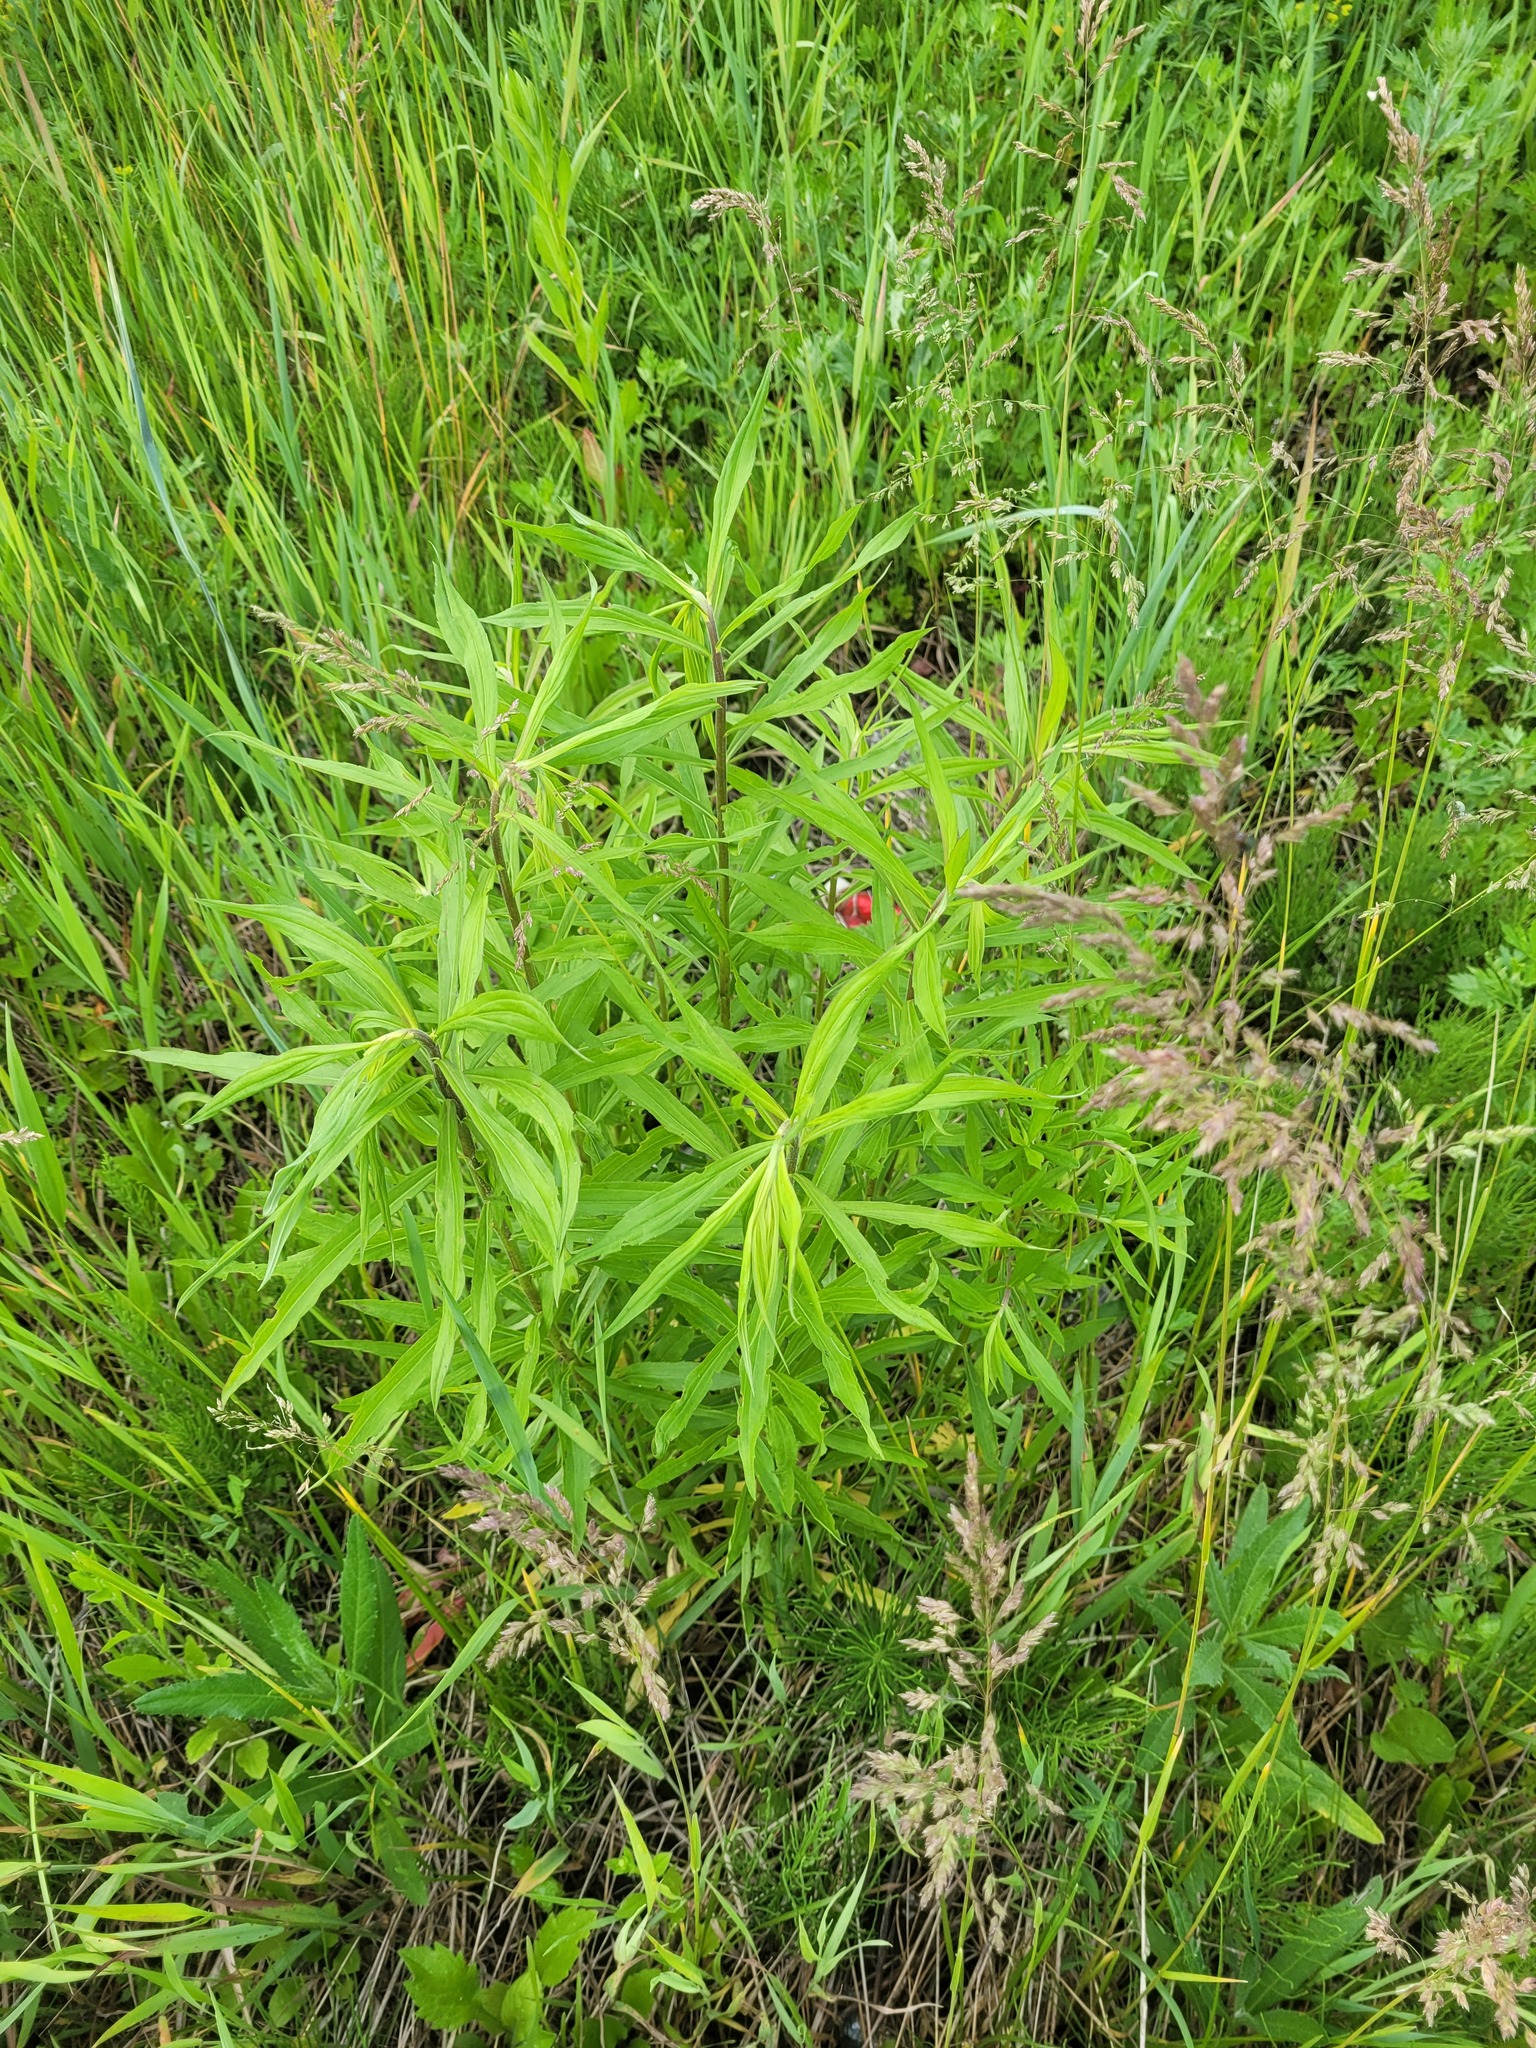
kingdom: Plantae
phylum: Tracheophyta
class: Magnoliopsida
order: Asterales
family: Asteraceae
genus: Solidago
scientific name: Solidago canadensis
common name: Canada goldenrod
